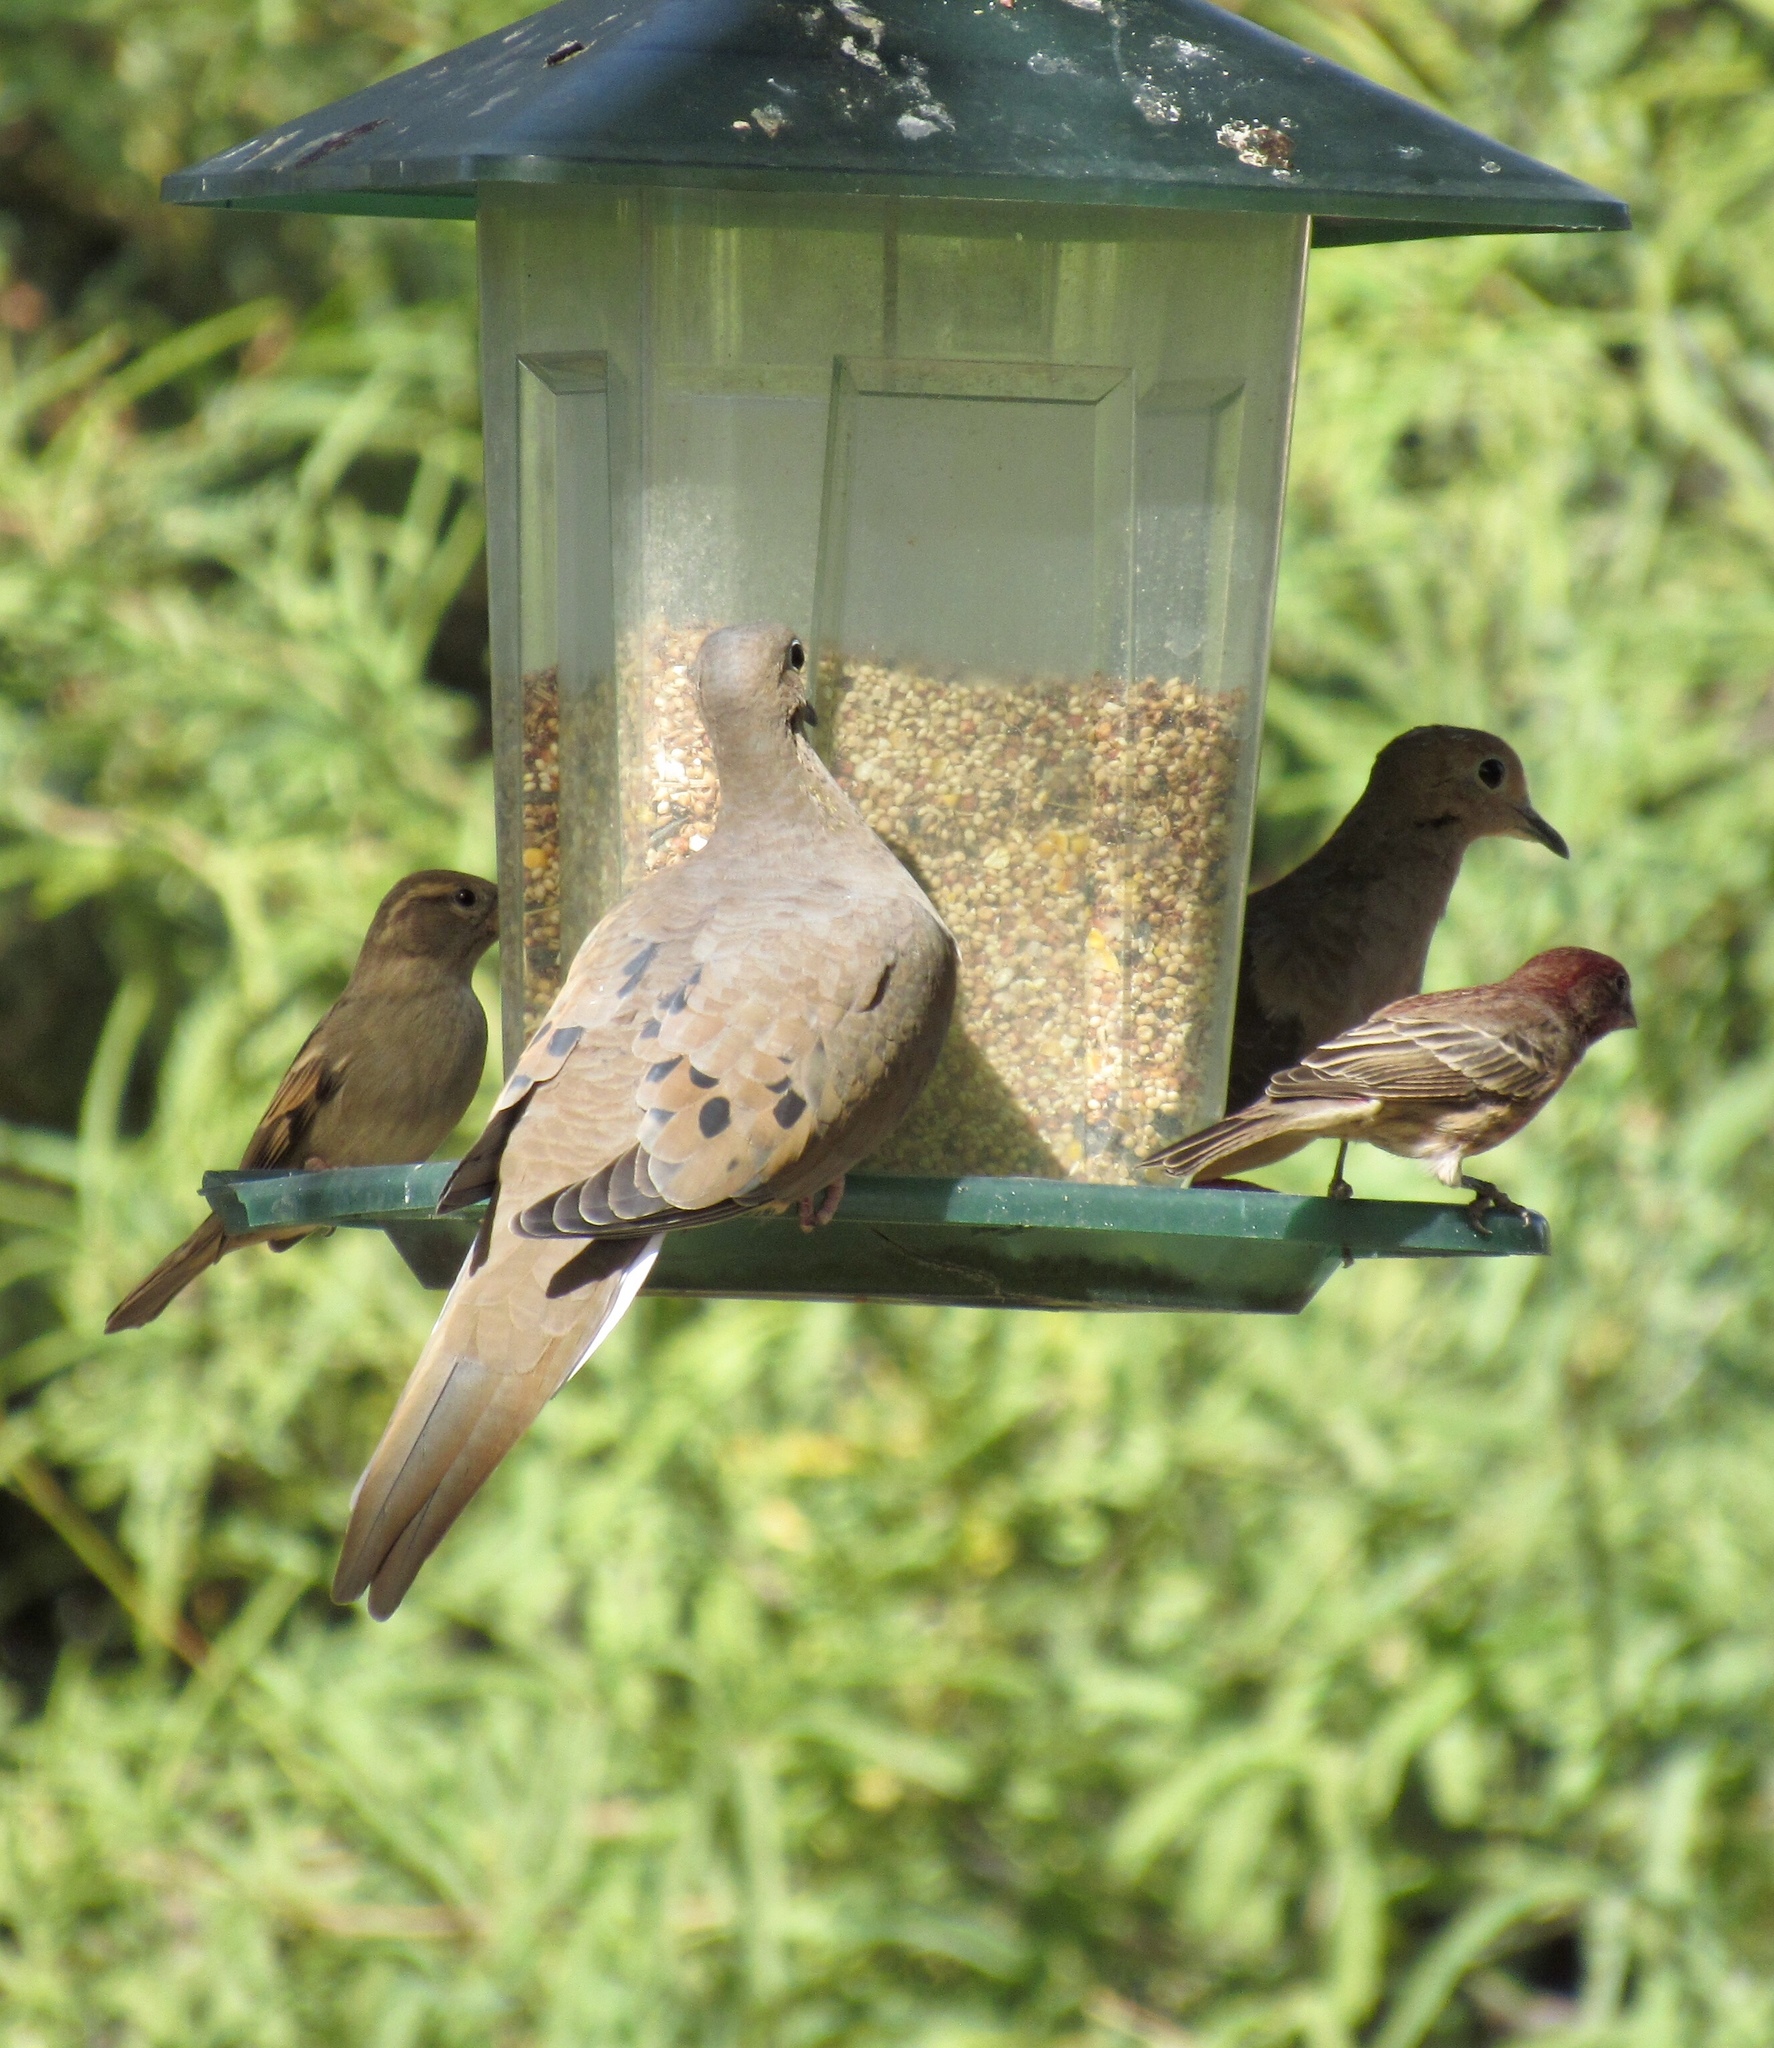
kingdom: Animalia
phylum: Chordata
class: Aves
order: Columbiformes
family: Columbidae
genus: Zenaida
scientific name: Zenaida macroura
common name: Mourning dove
